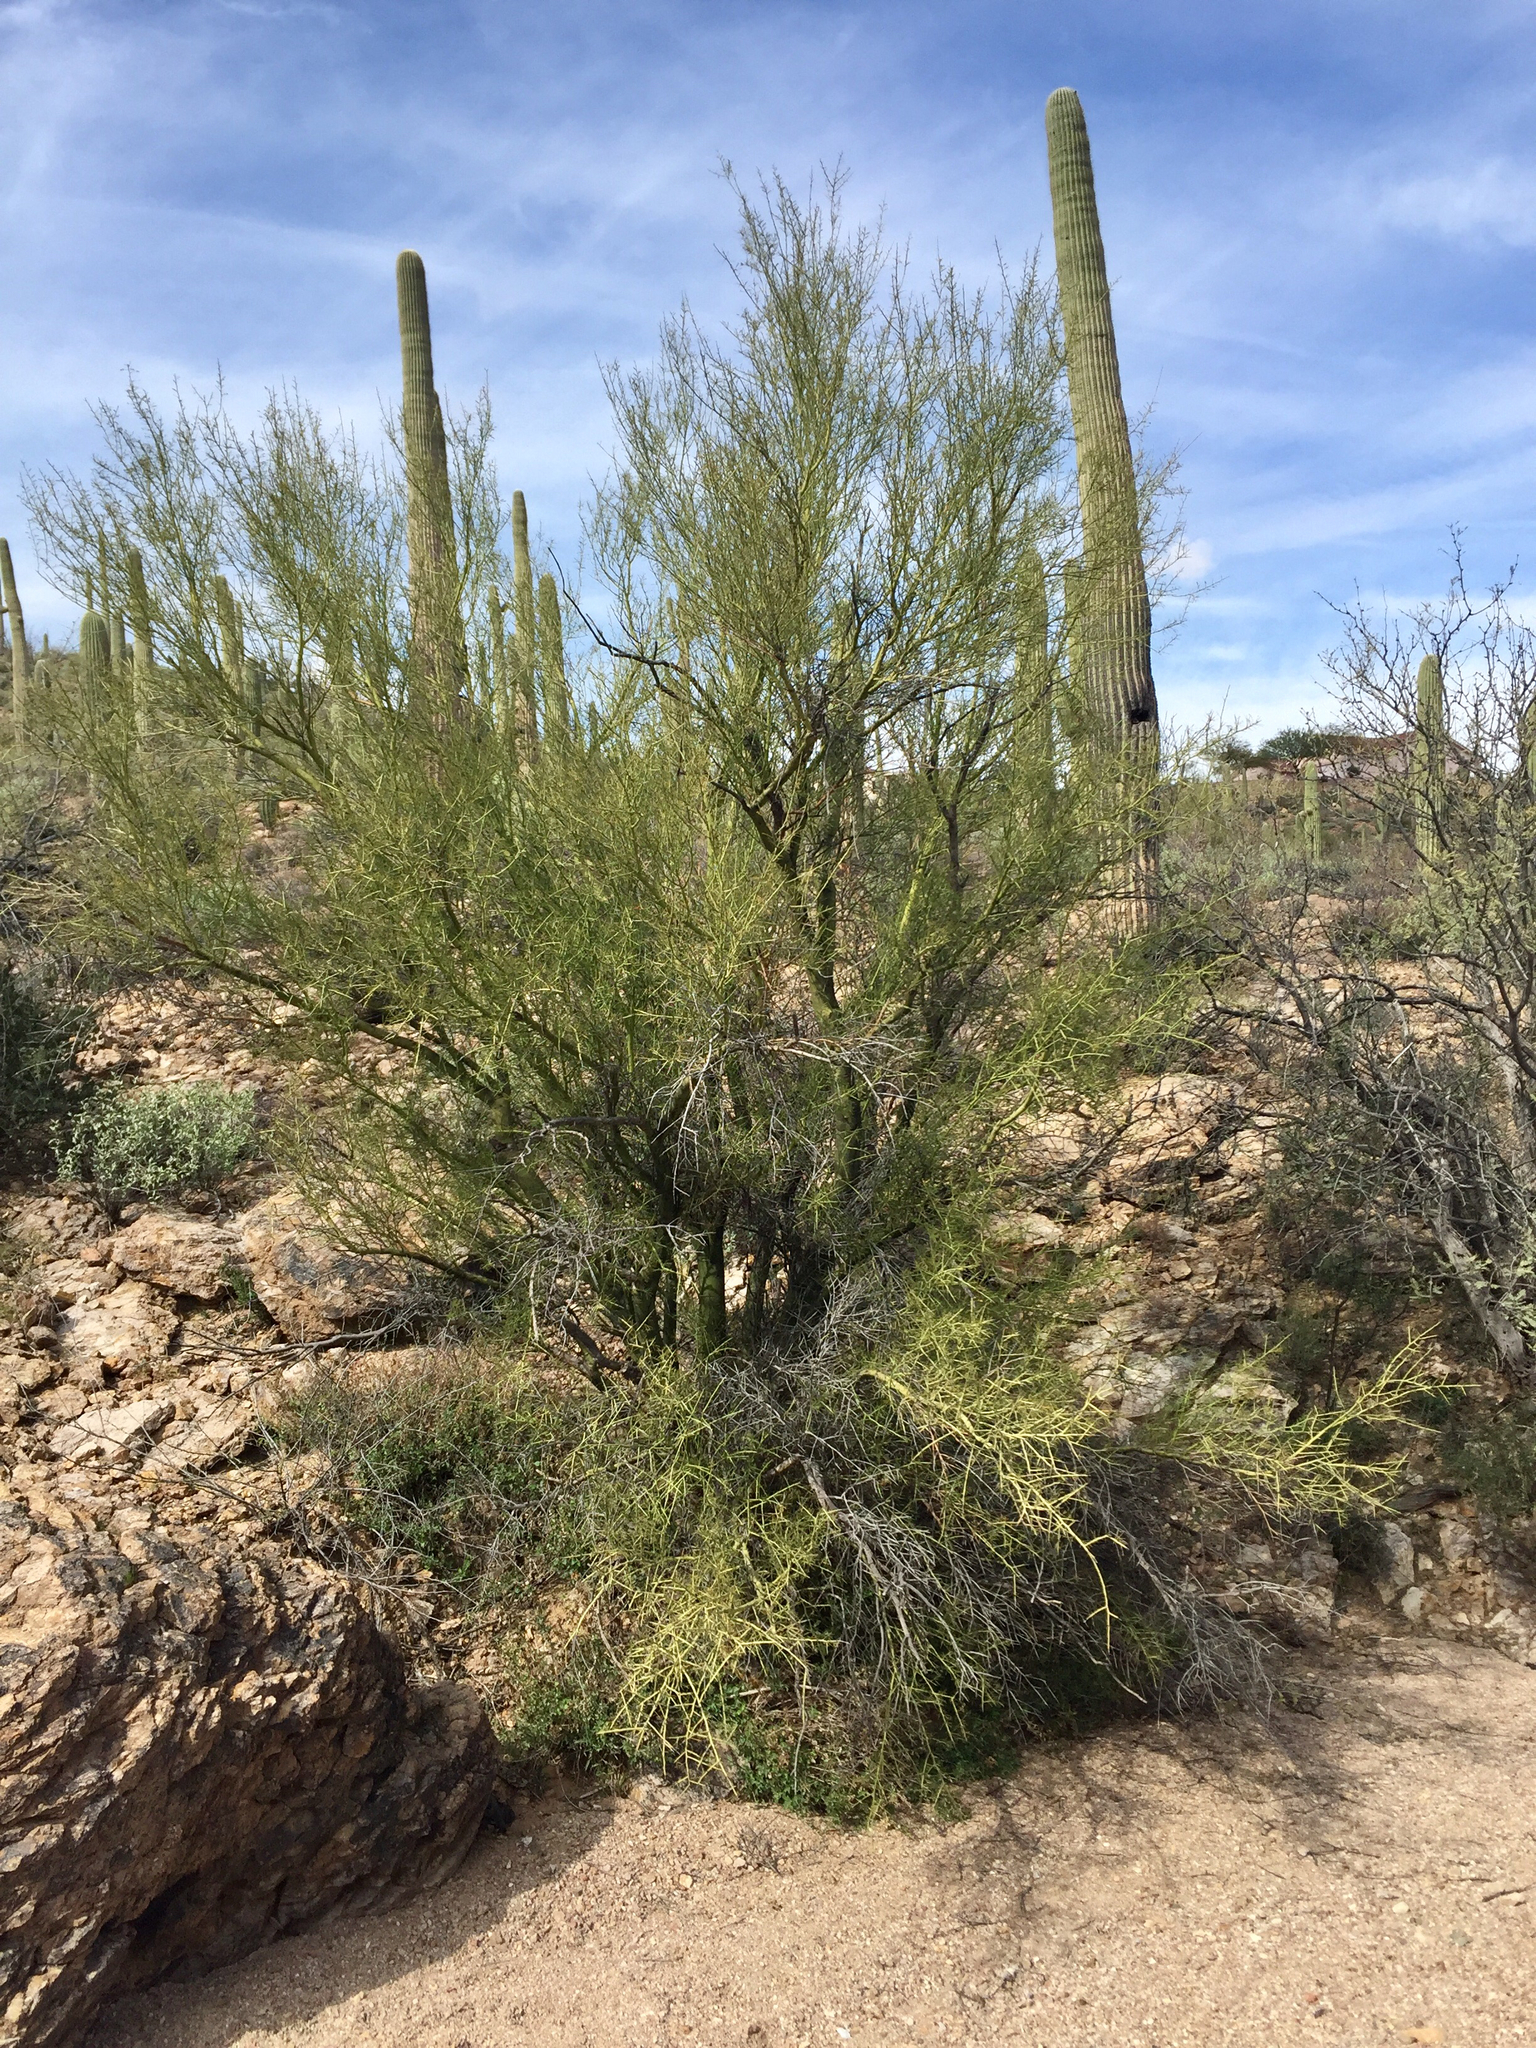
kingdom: Plantae
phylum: Tracheophyta
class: Magnoliopsida
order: Fabales
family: Fabaceae
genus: Parkinsonia
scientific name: Parkinsonia microphylla
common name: Yellow paloverde
